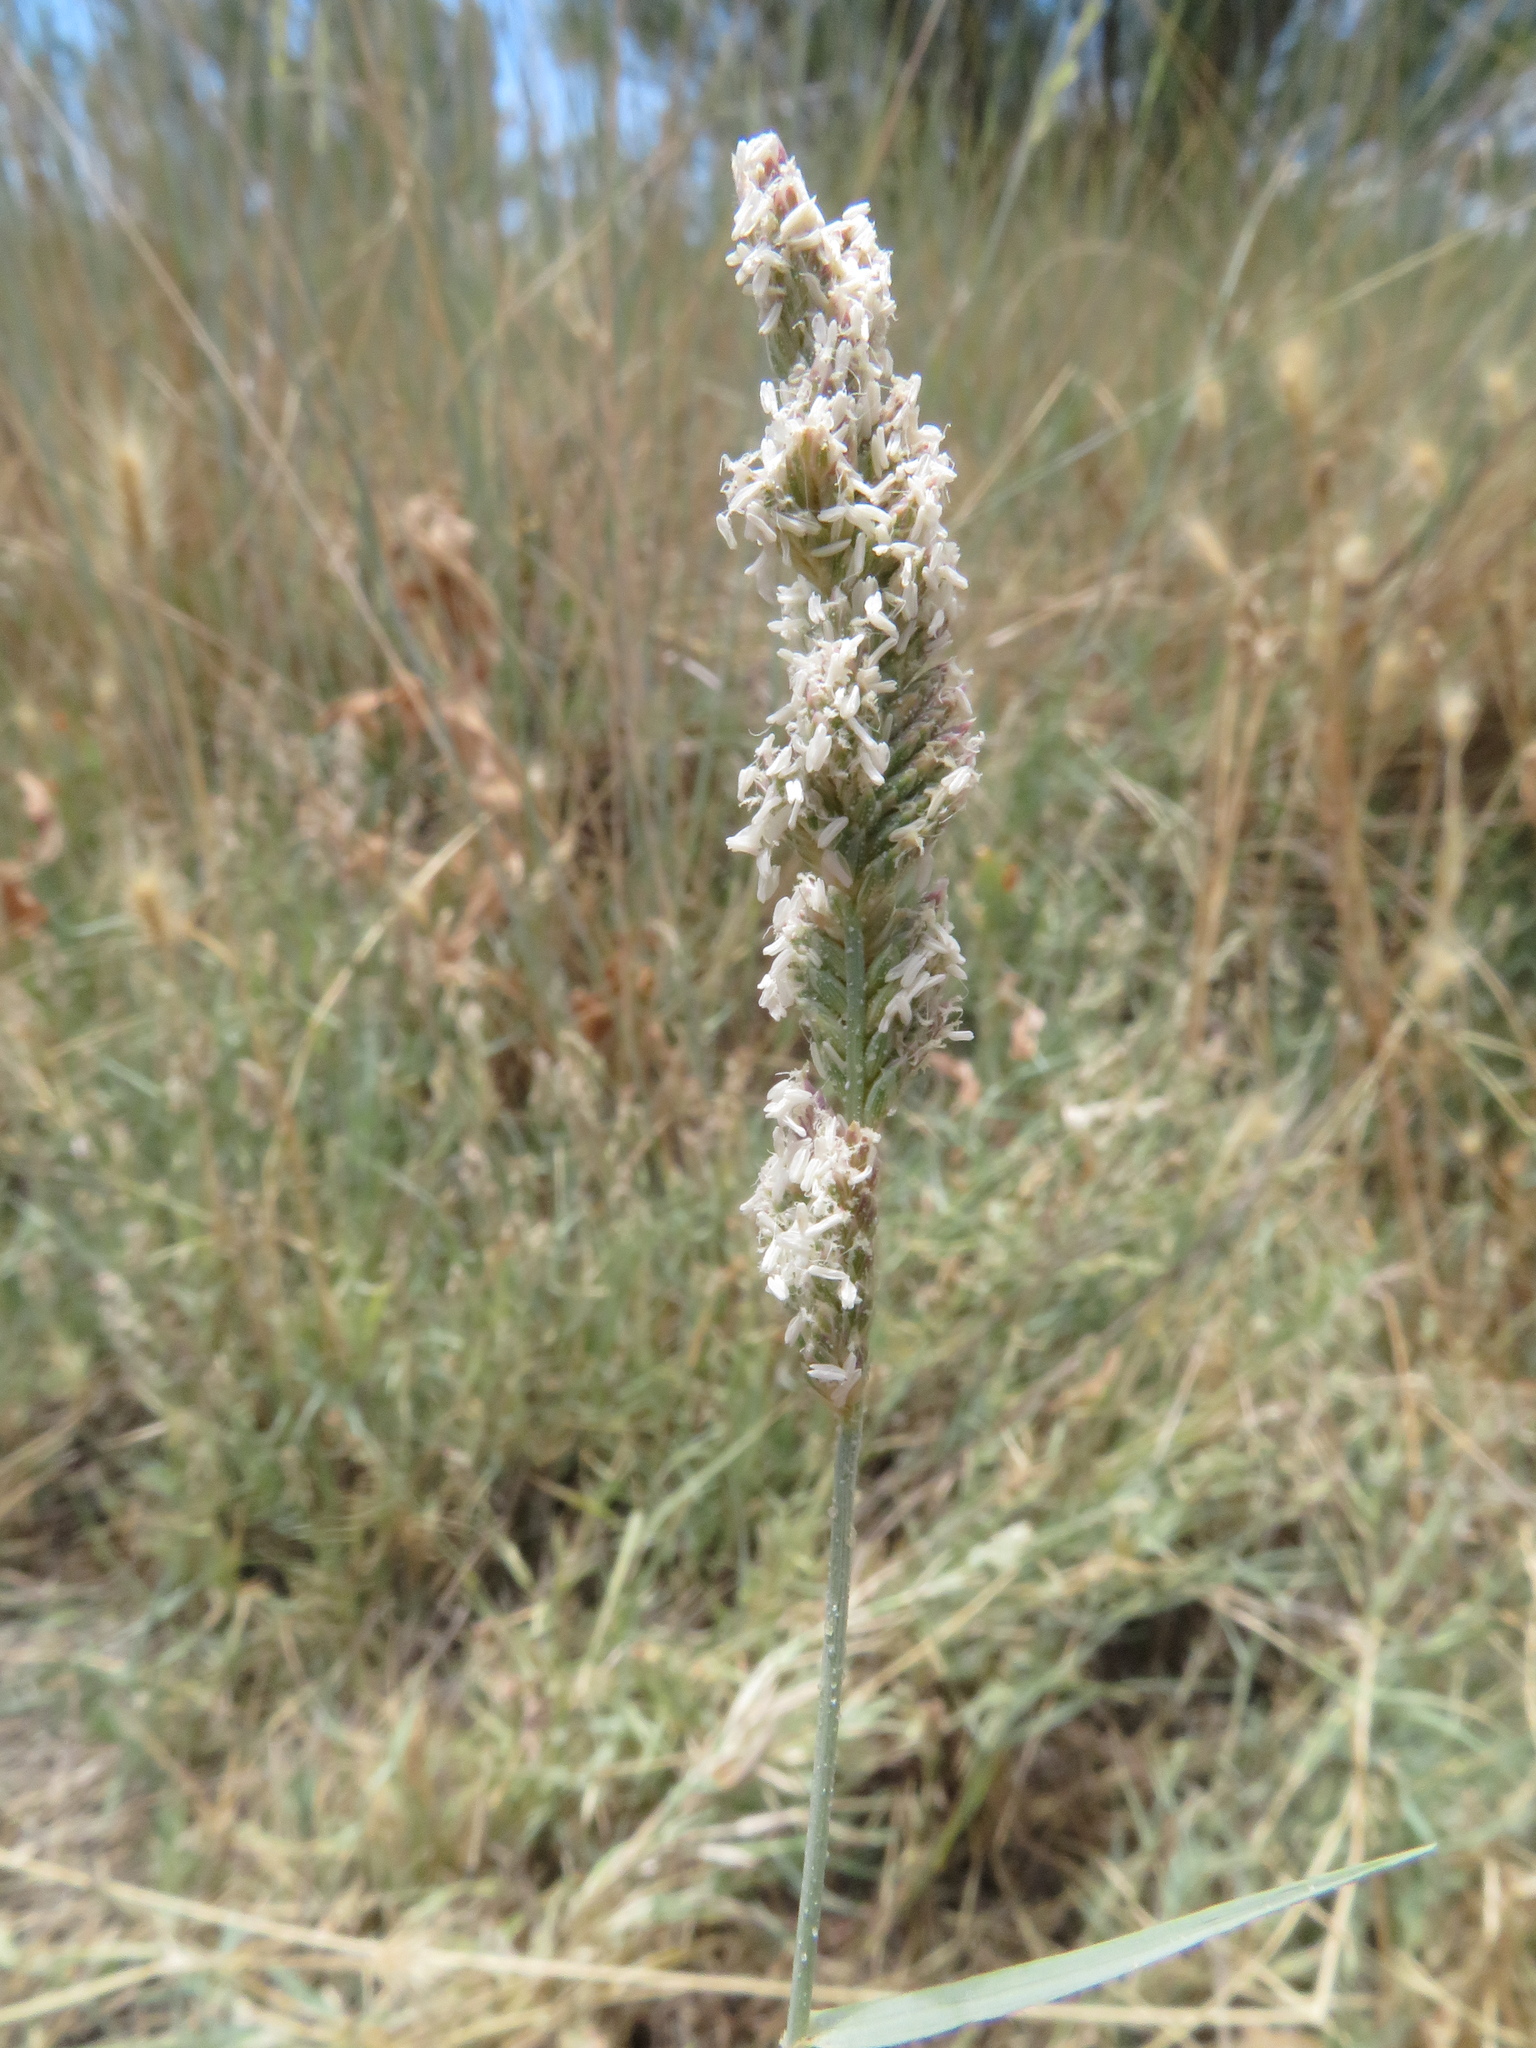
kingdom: Plantae
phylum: Tracheophyta
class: Liliopsida
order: Poales
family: Poaceae
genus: Aeluropus
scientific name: Aeluropus littoralis
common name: Indian walnut
